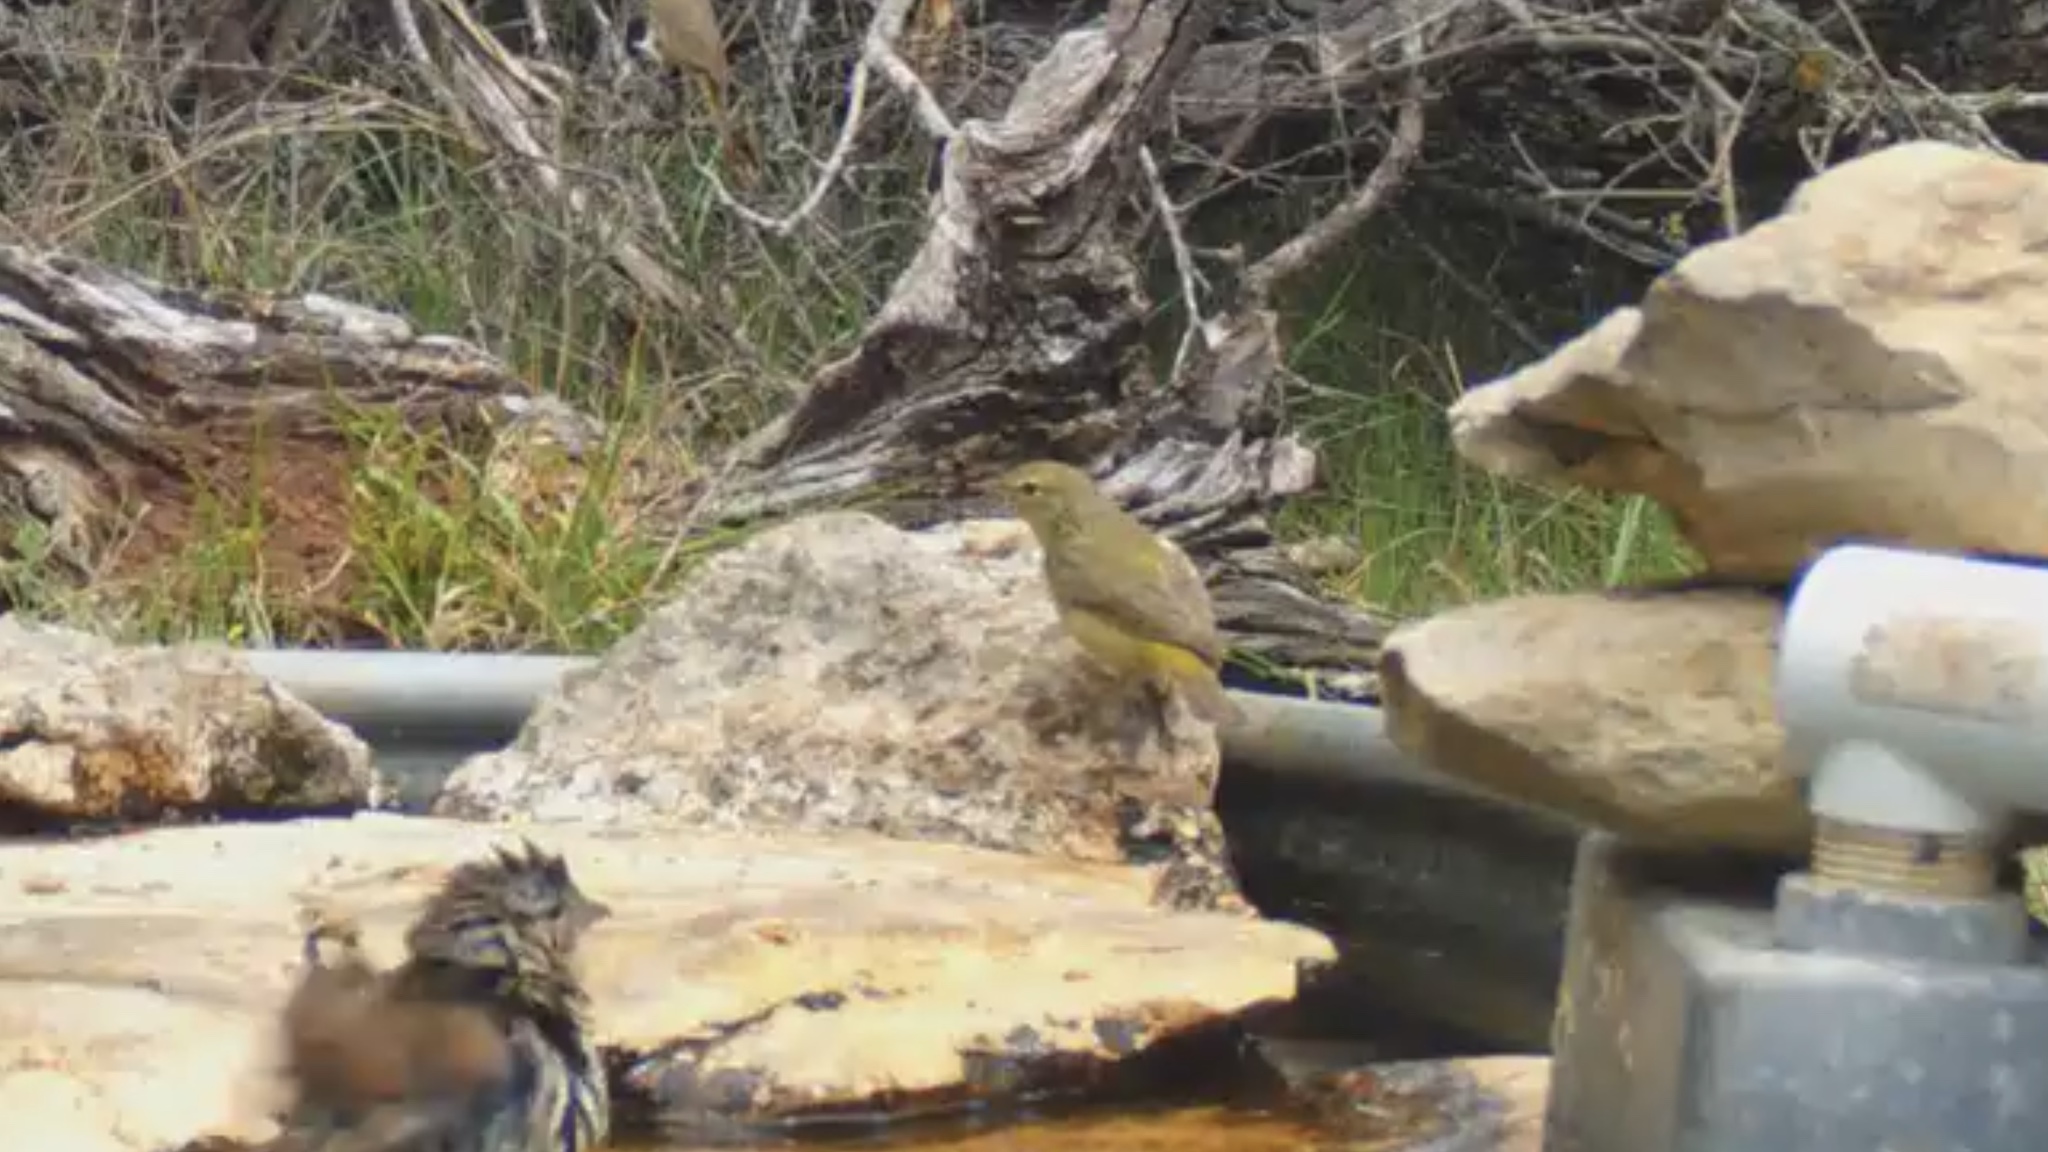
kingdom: Animalia
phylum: Chordata
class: Aves
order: Passeriformes
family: Parulidae
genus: Leiothlypis
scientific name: Leiothlypis celata
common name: Orange-crowned warbler
